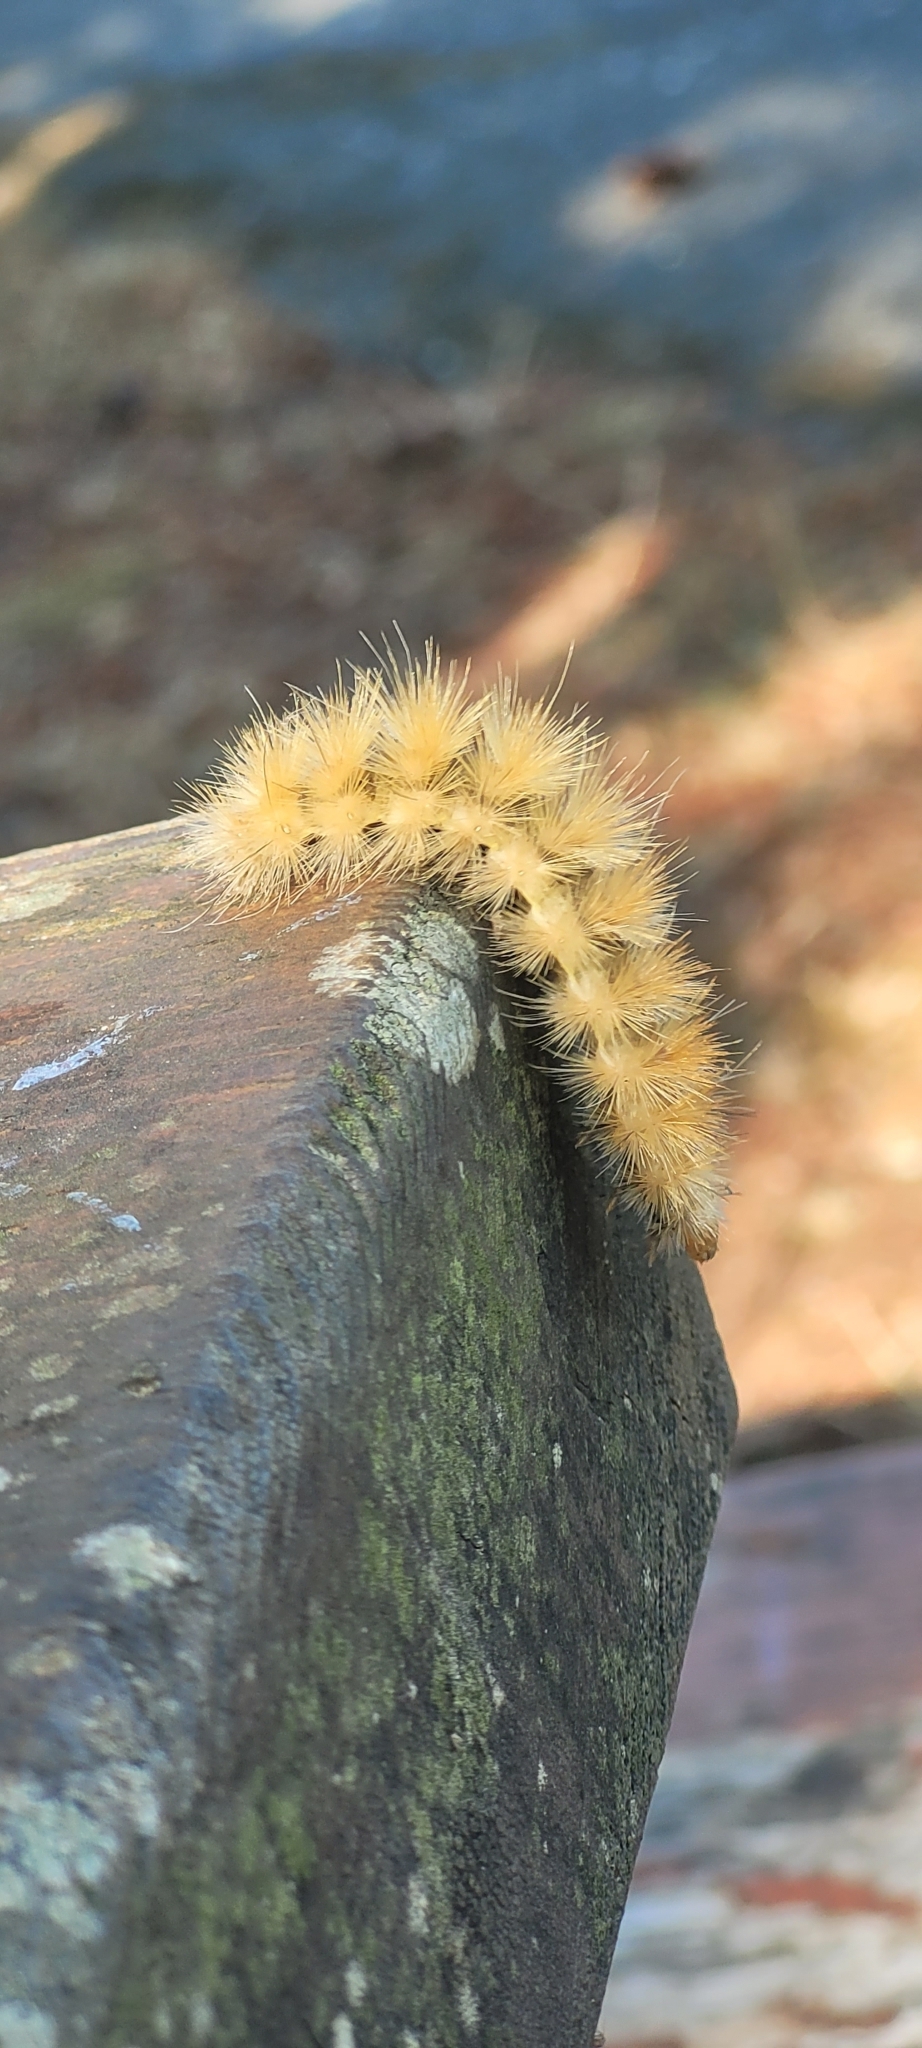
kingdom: Animalia
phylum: Arthropoda
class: Insecta
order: Lepidoptera
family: Erebidae
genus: Spilosoma
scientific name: Spilosoma virginica
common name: Virginia tiger moth
